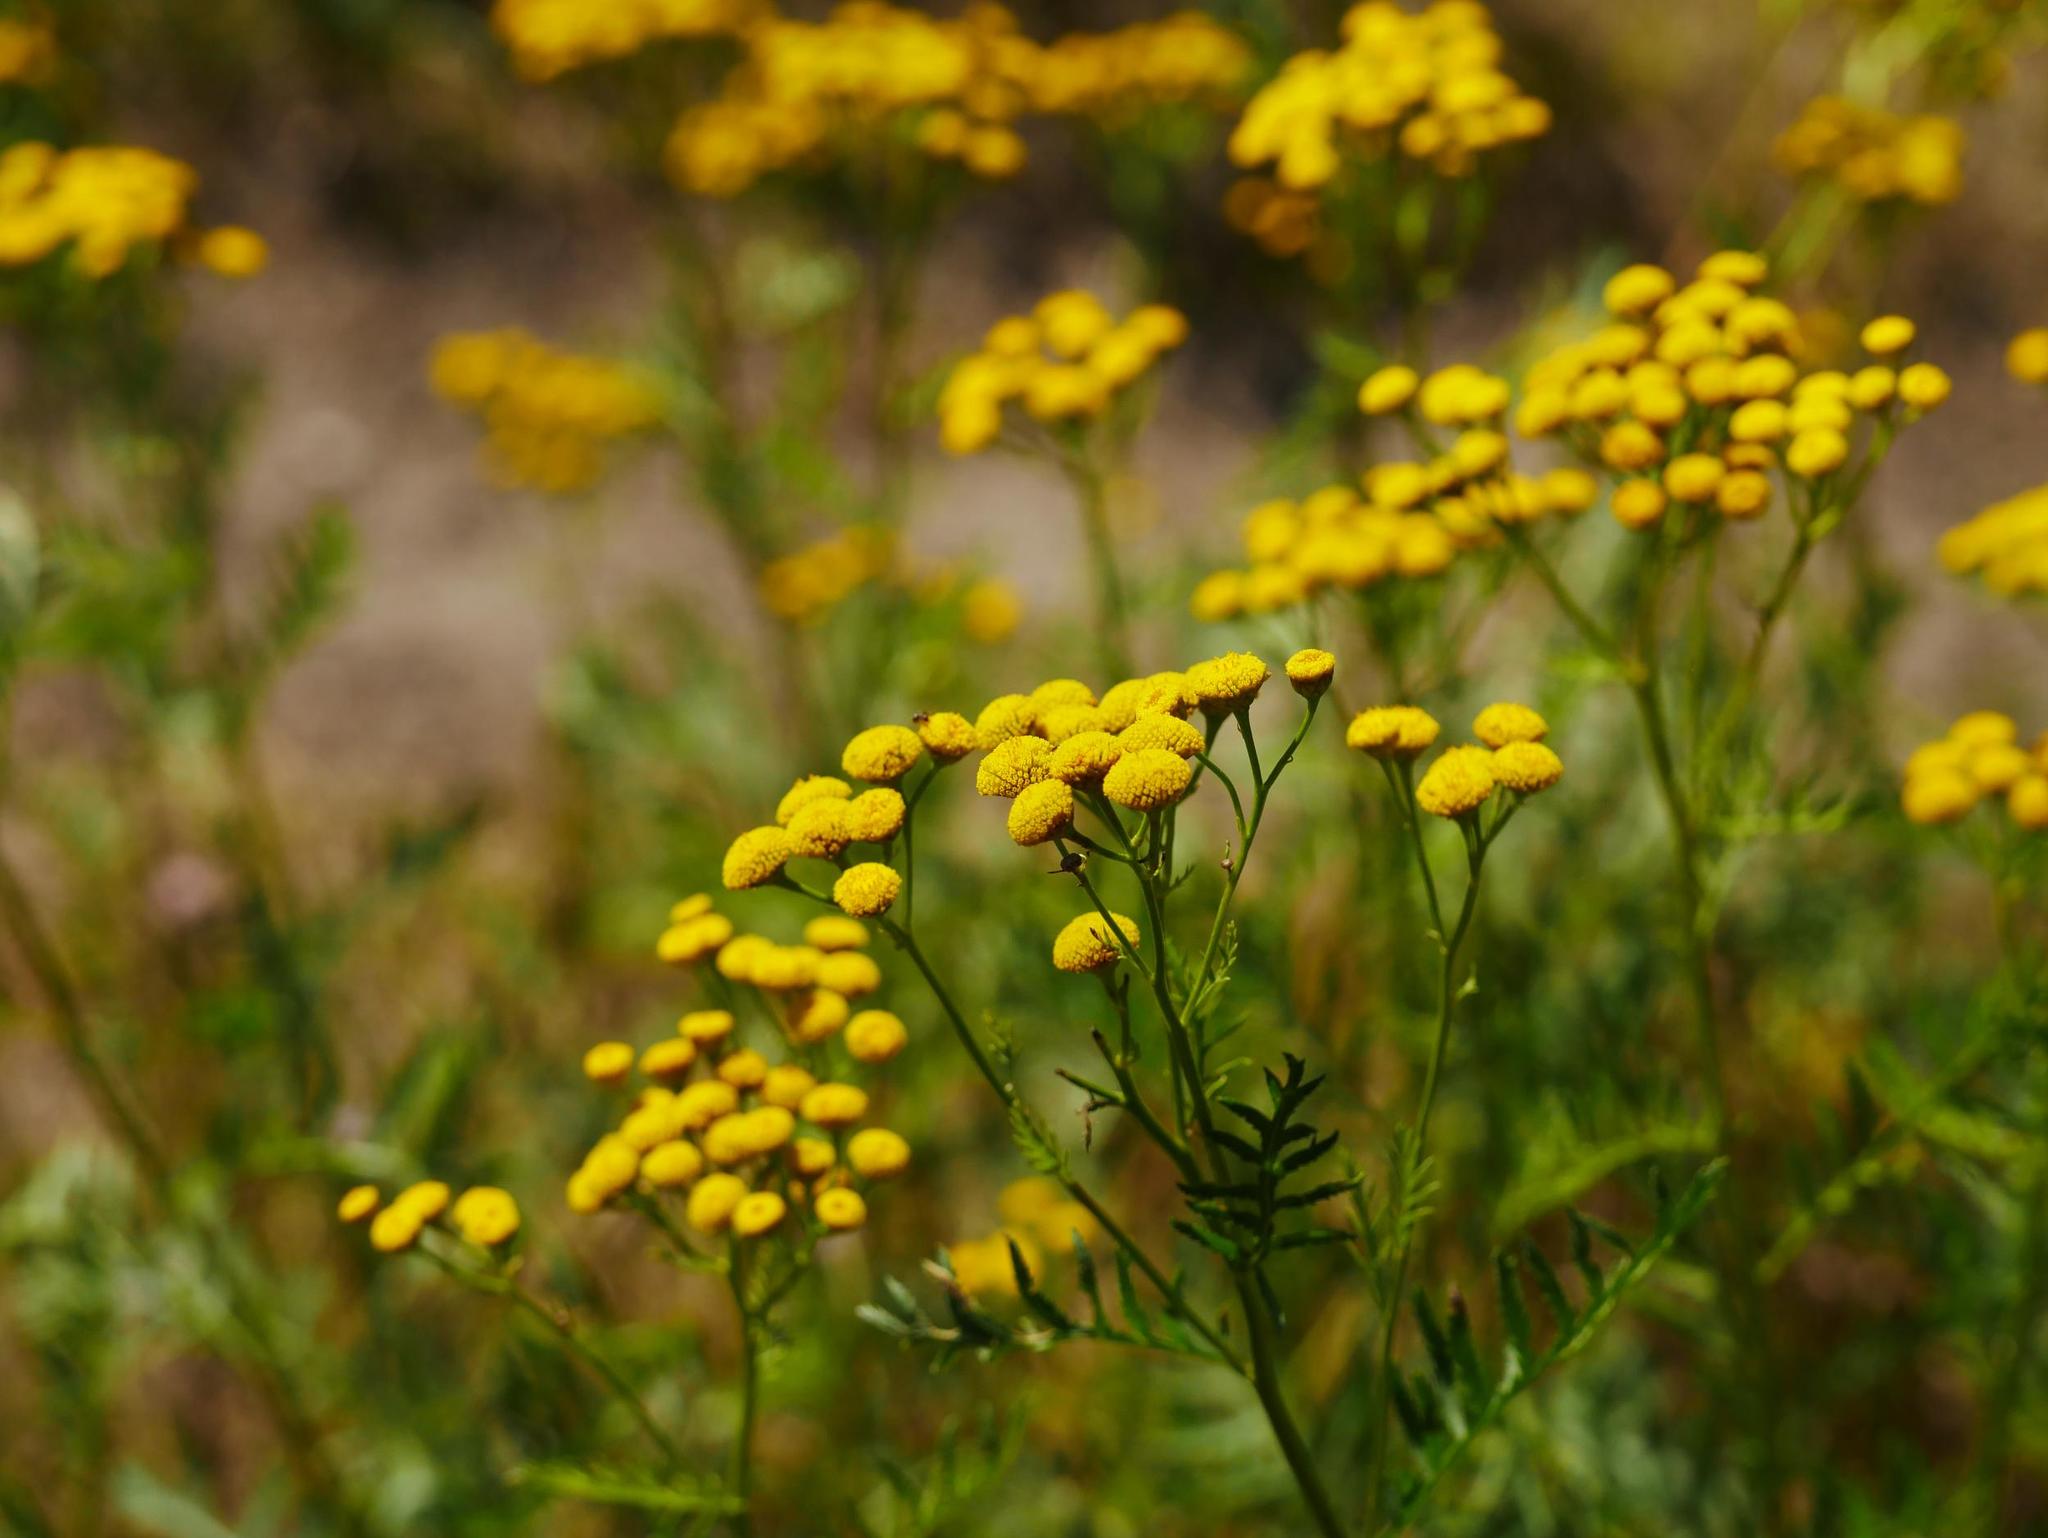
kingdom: Plantae
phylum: Tracheophyta
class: Magnoliopsida
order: Asterales
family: Asteraceae
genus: Tanacetum
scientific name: Tanacetum vulgare
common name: Common tansy
